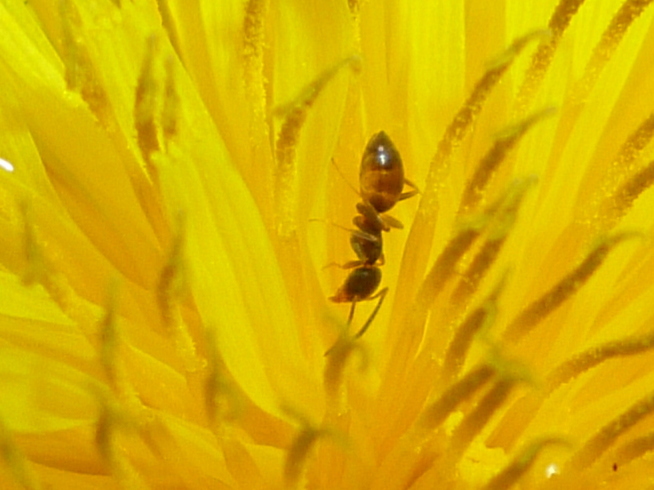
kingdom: Animalia
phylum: Arthropoda
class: Insecta
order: Hymenoptera
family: Formicidae
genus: Tapinoma
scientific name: Tapinoma sessile
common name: Odorous house ant
